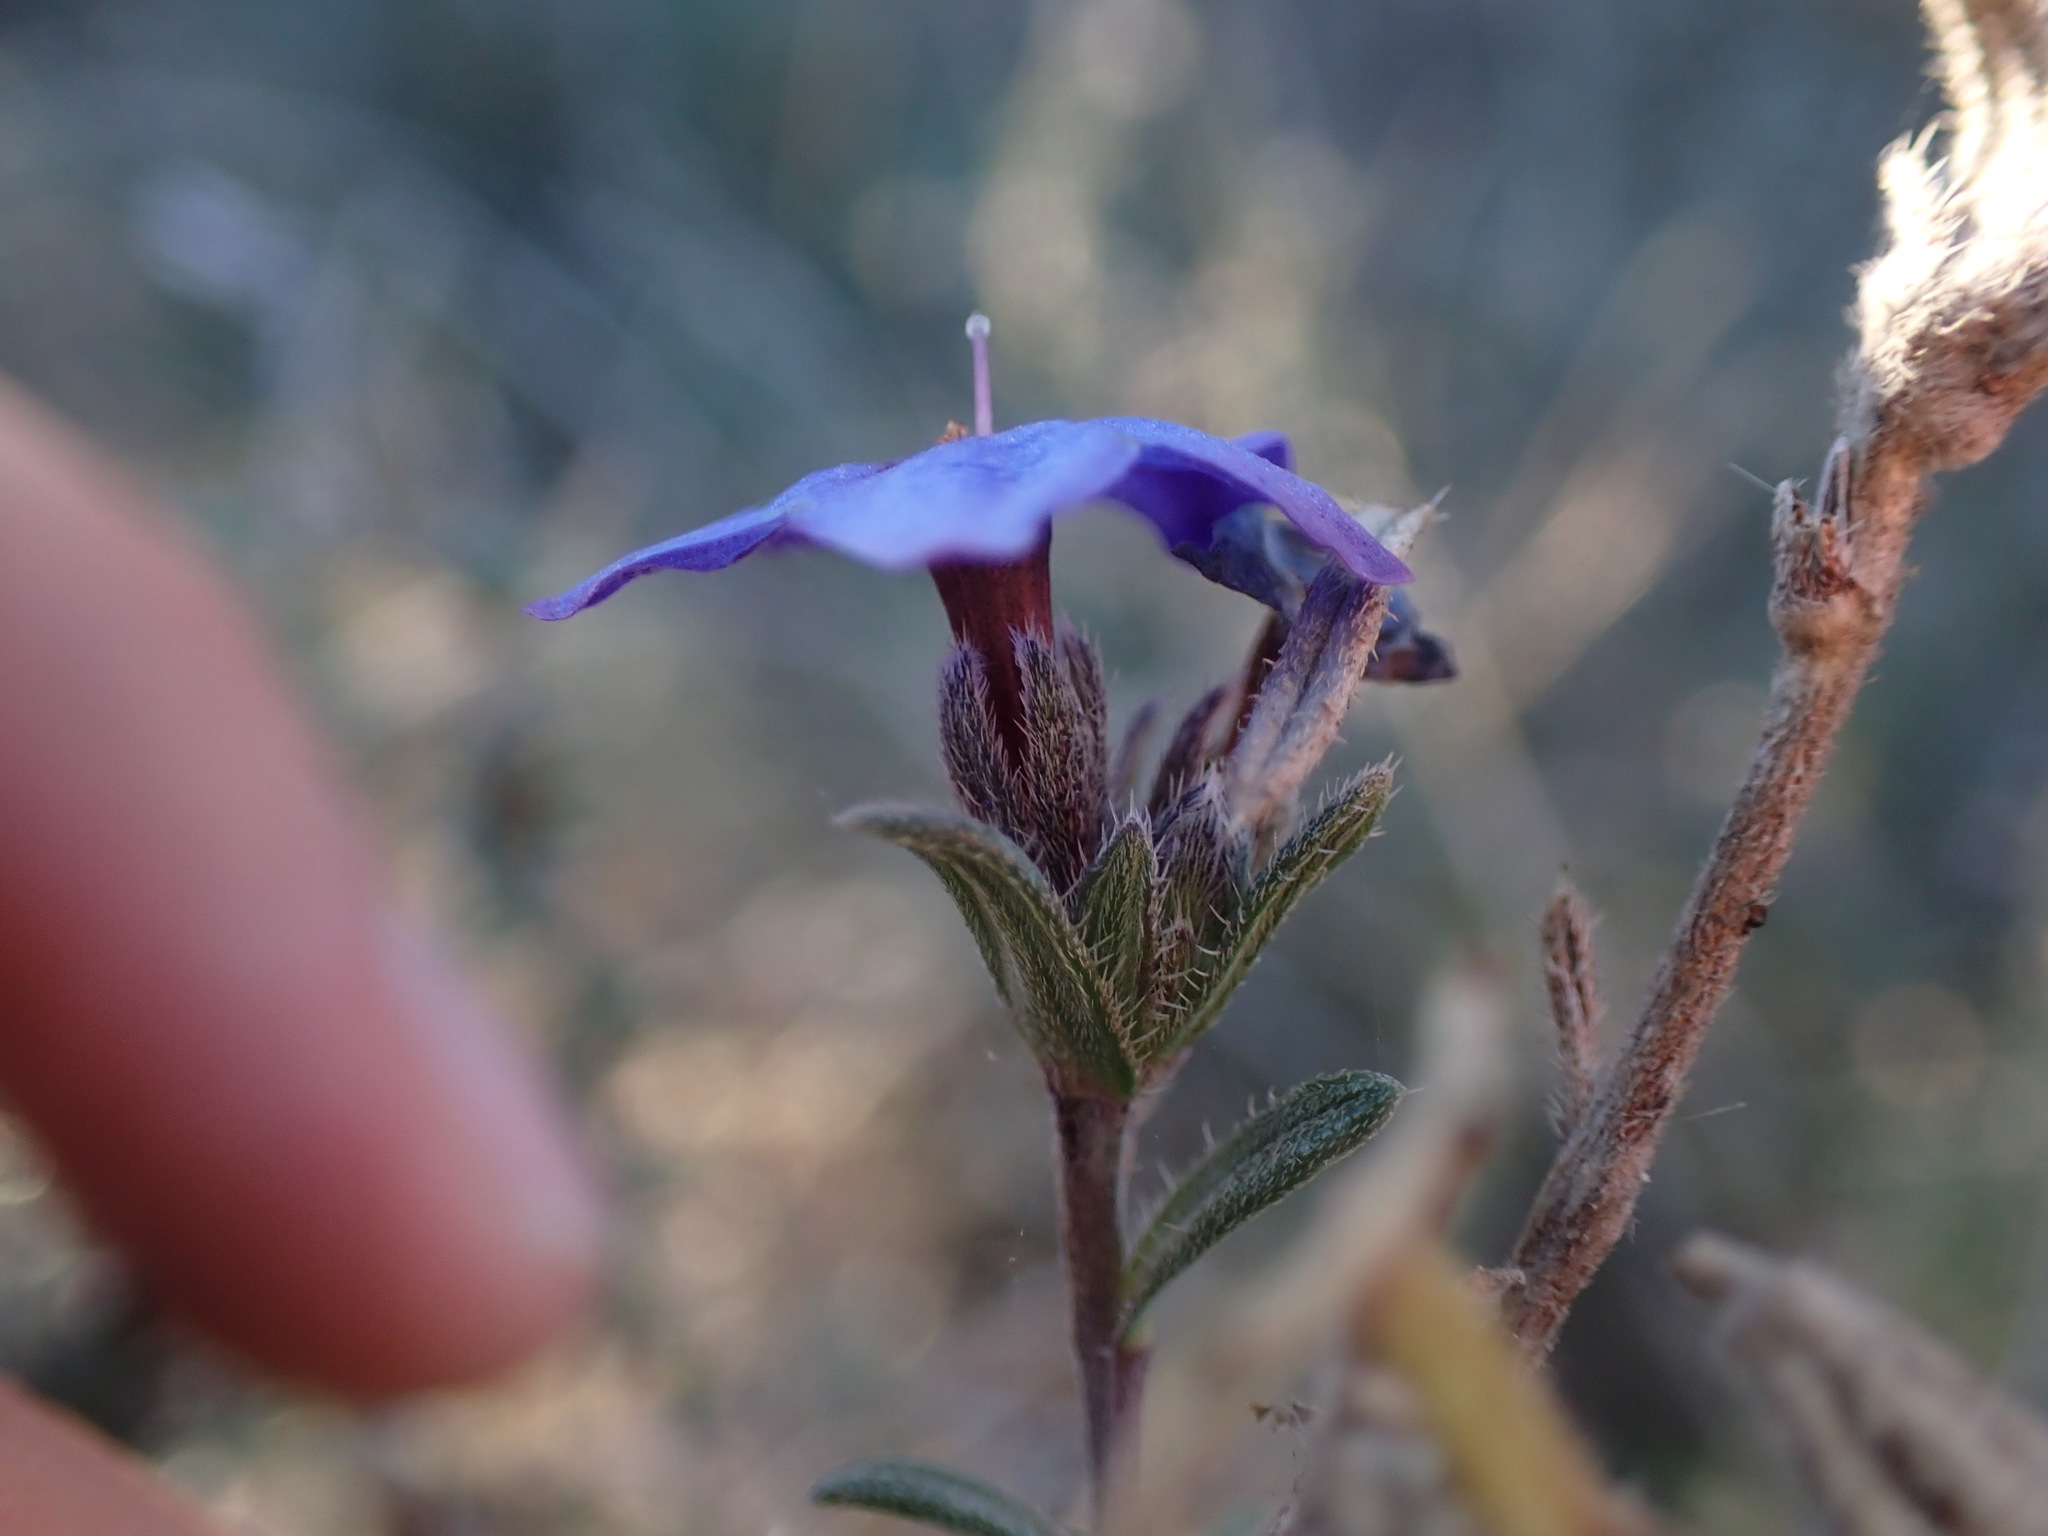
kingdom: Plantae
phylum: Tracheophyta
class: Magnoliopsida
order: Boraginales
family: Boraginaceae
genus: Lithodora
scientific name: Lithodora fruticosa
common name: Shrubby gromwell
